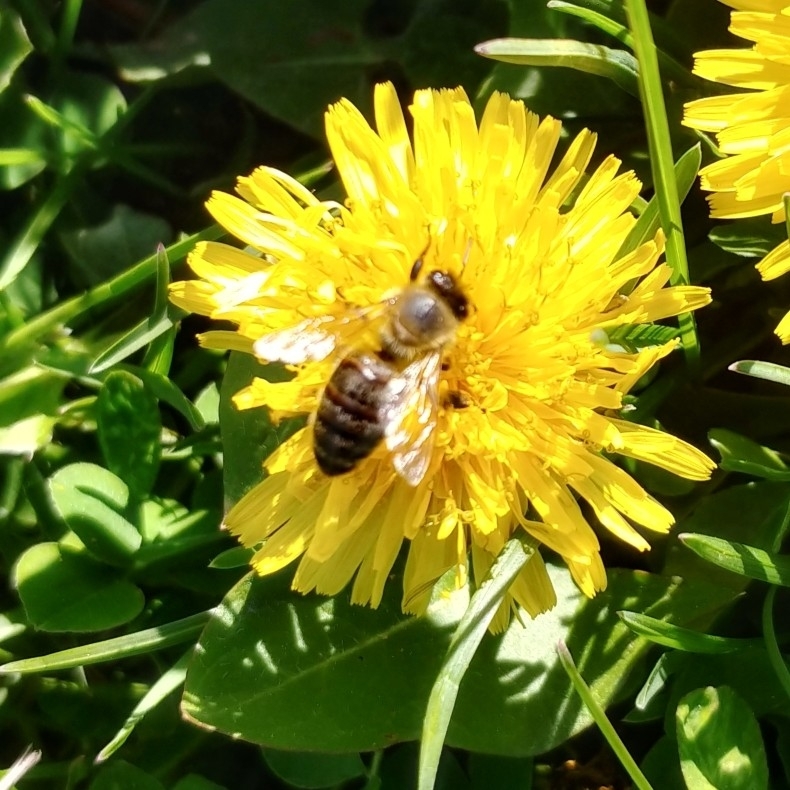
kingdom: Animalia
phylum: Arthropoda
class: Insecta
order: Hymenoptera
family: Apidae
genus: Apis
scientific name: Apis mellifera
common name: Honey bee
